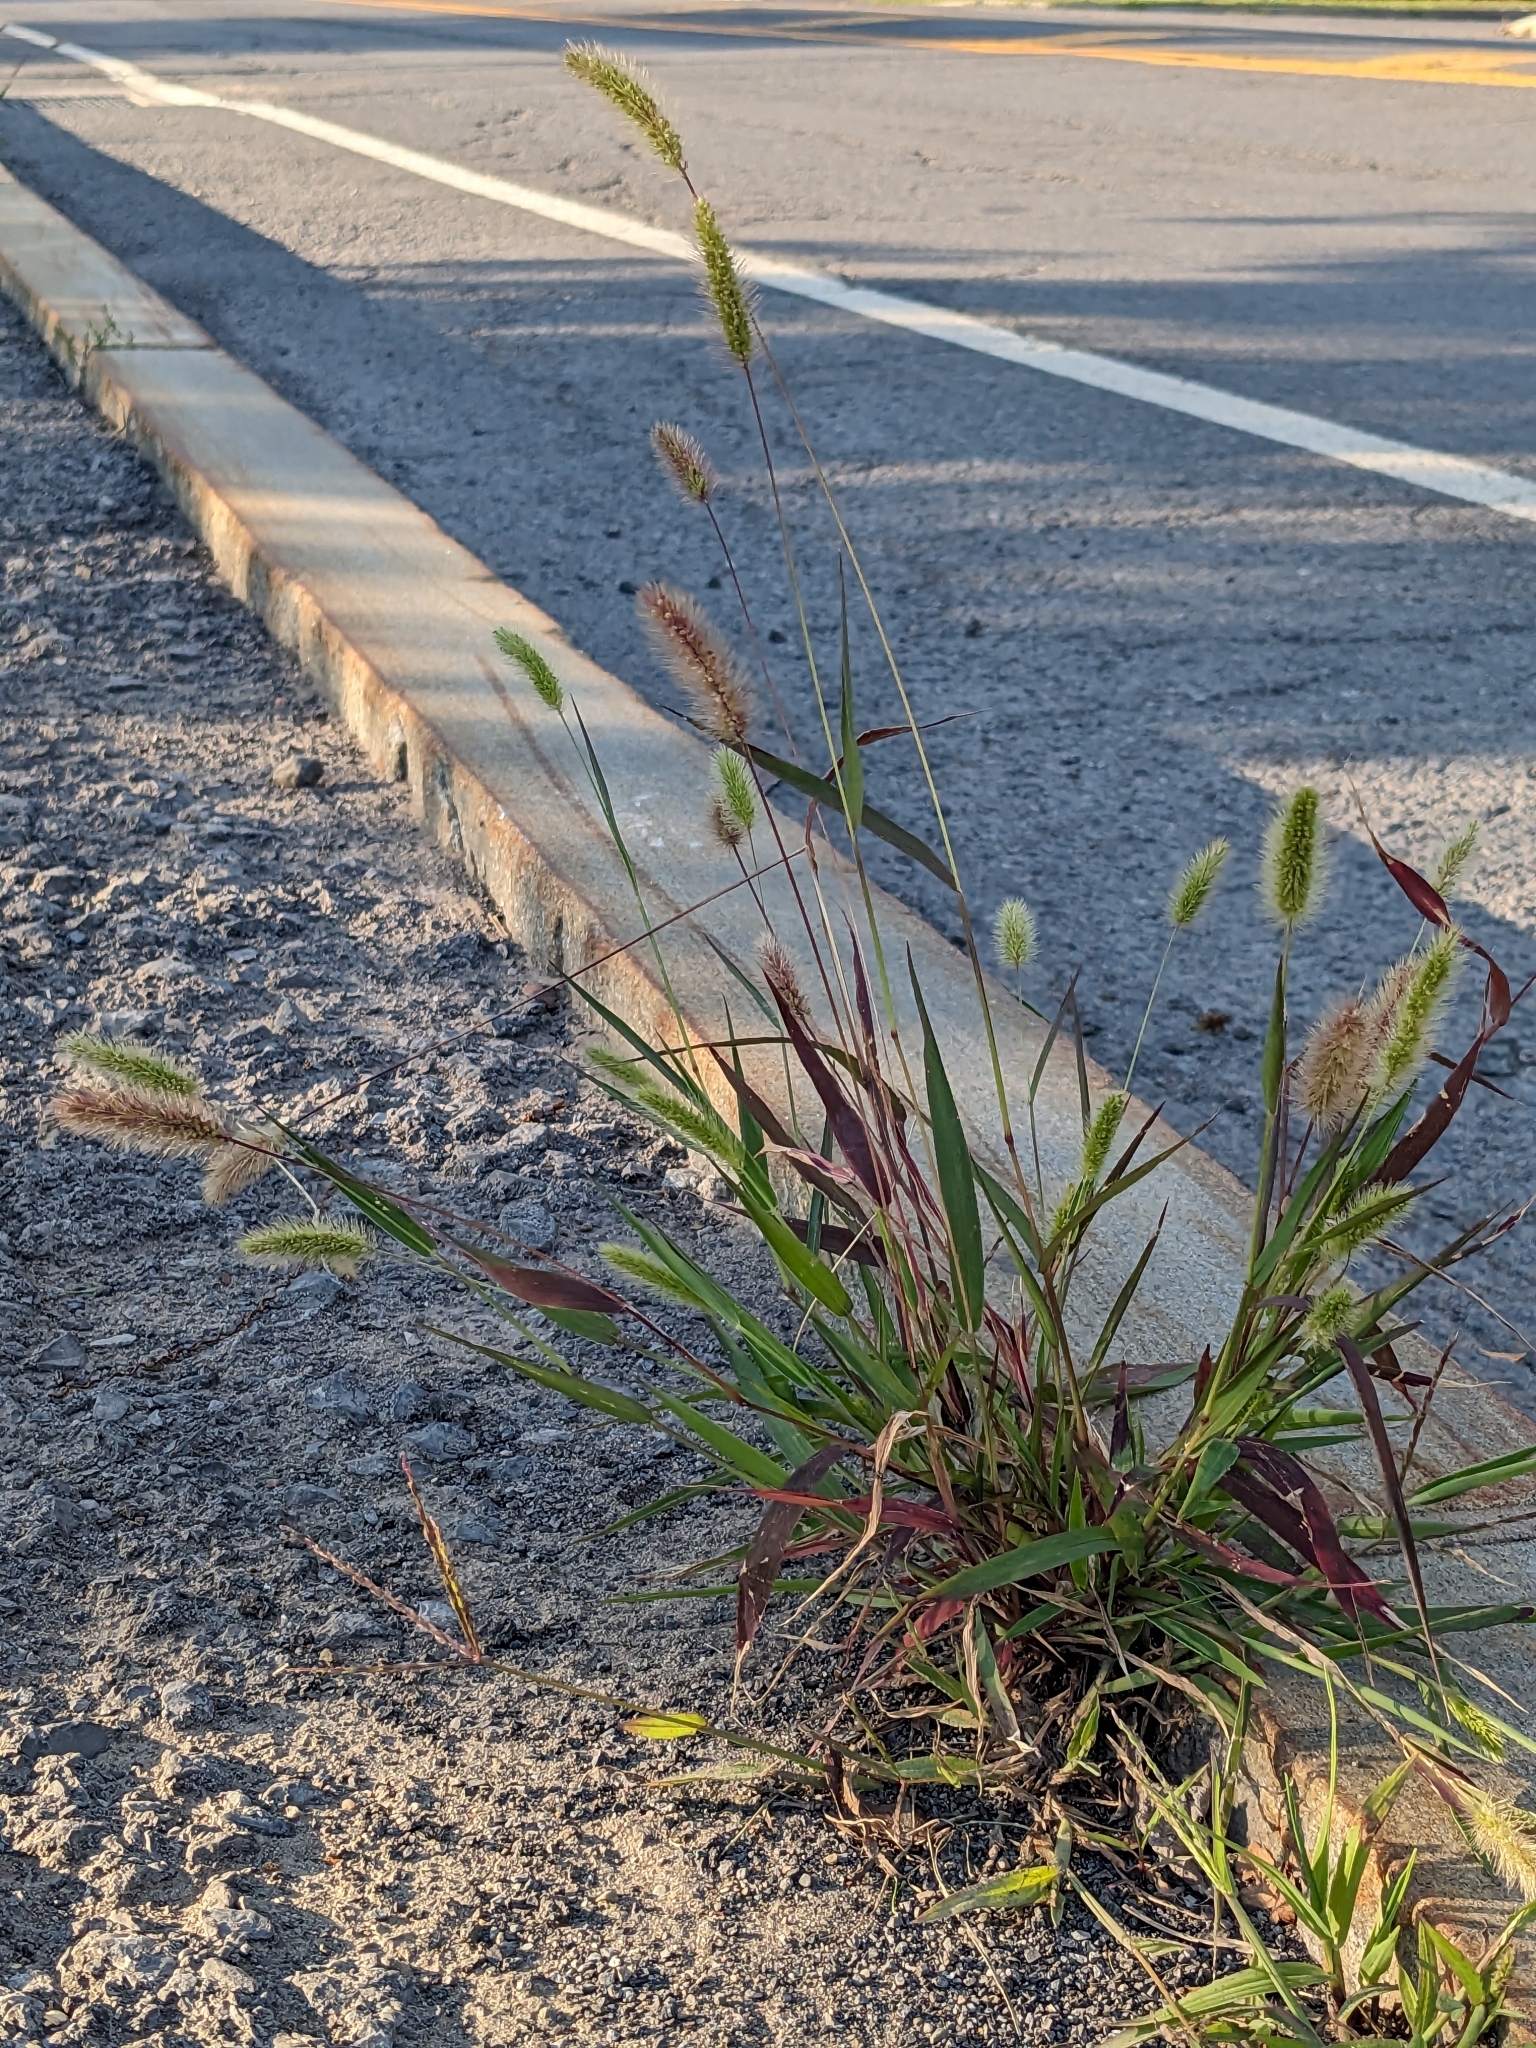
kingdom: Plantae
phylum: Tracheophyta
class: Liliopsida
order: Poales
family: Poaceae
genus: Setaria
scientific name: Setaria viridis
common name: Green bristlegrass
